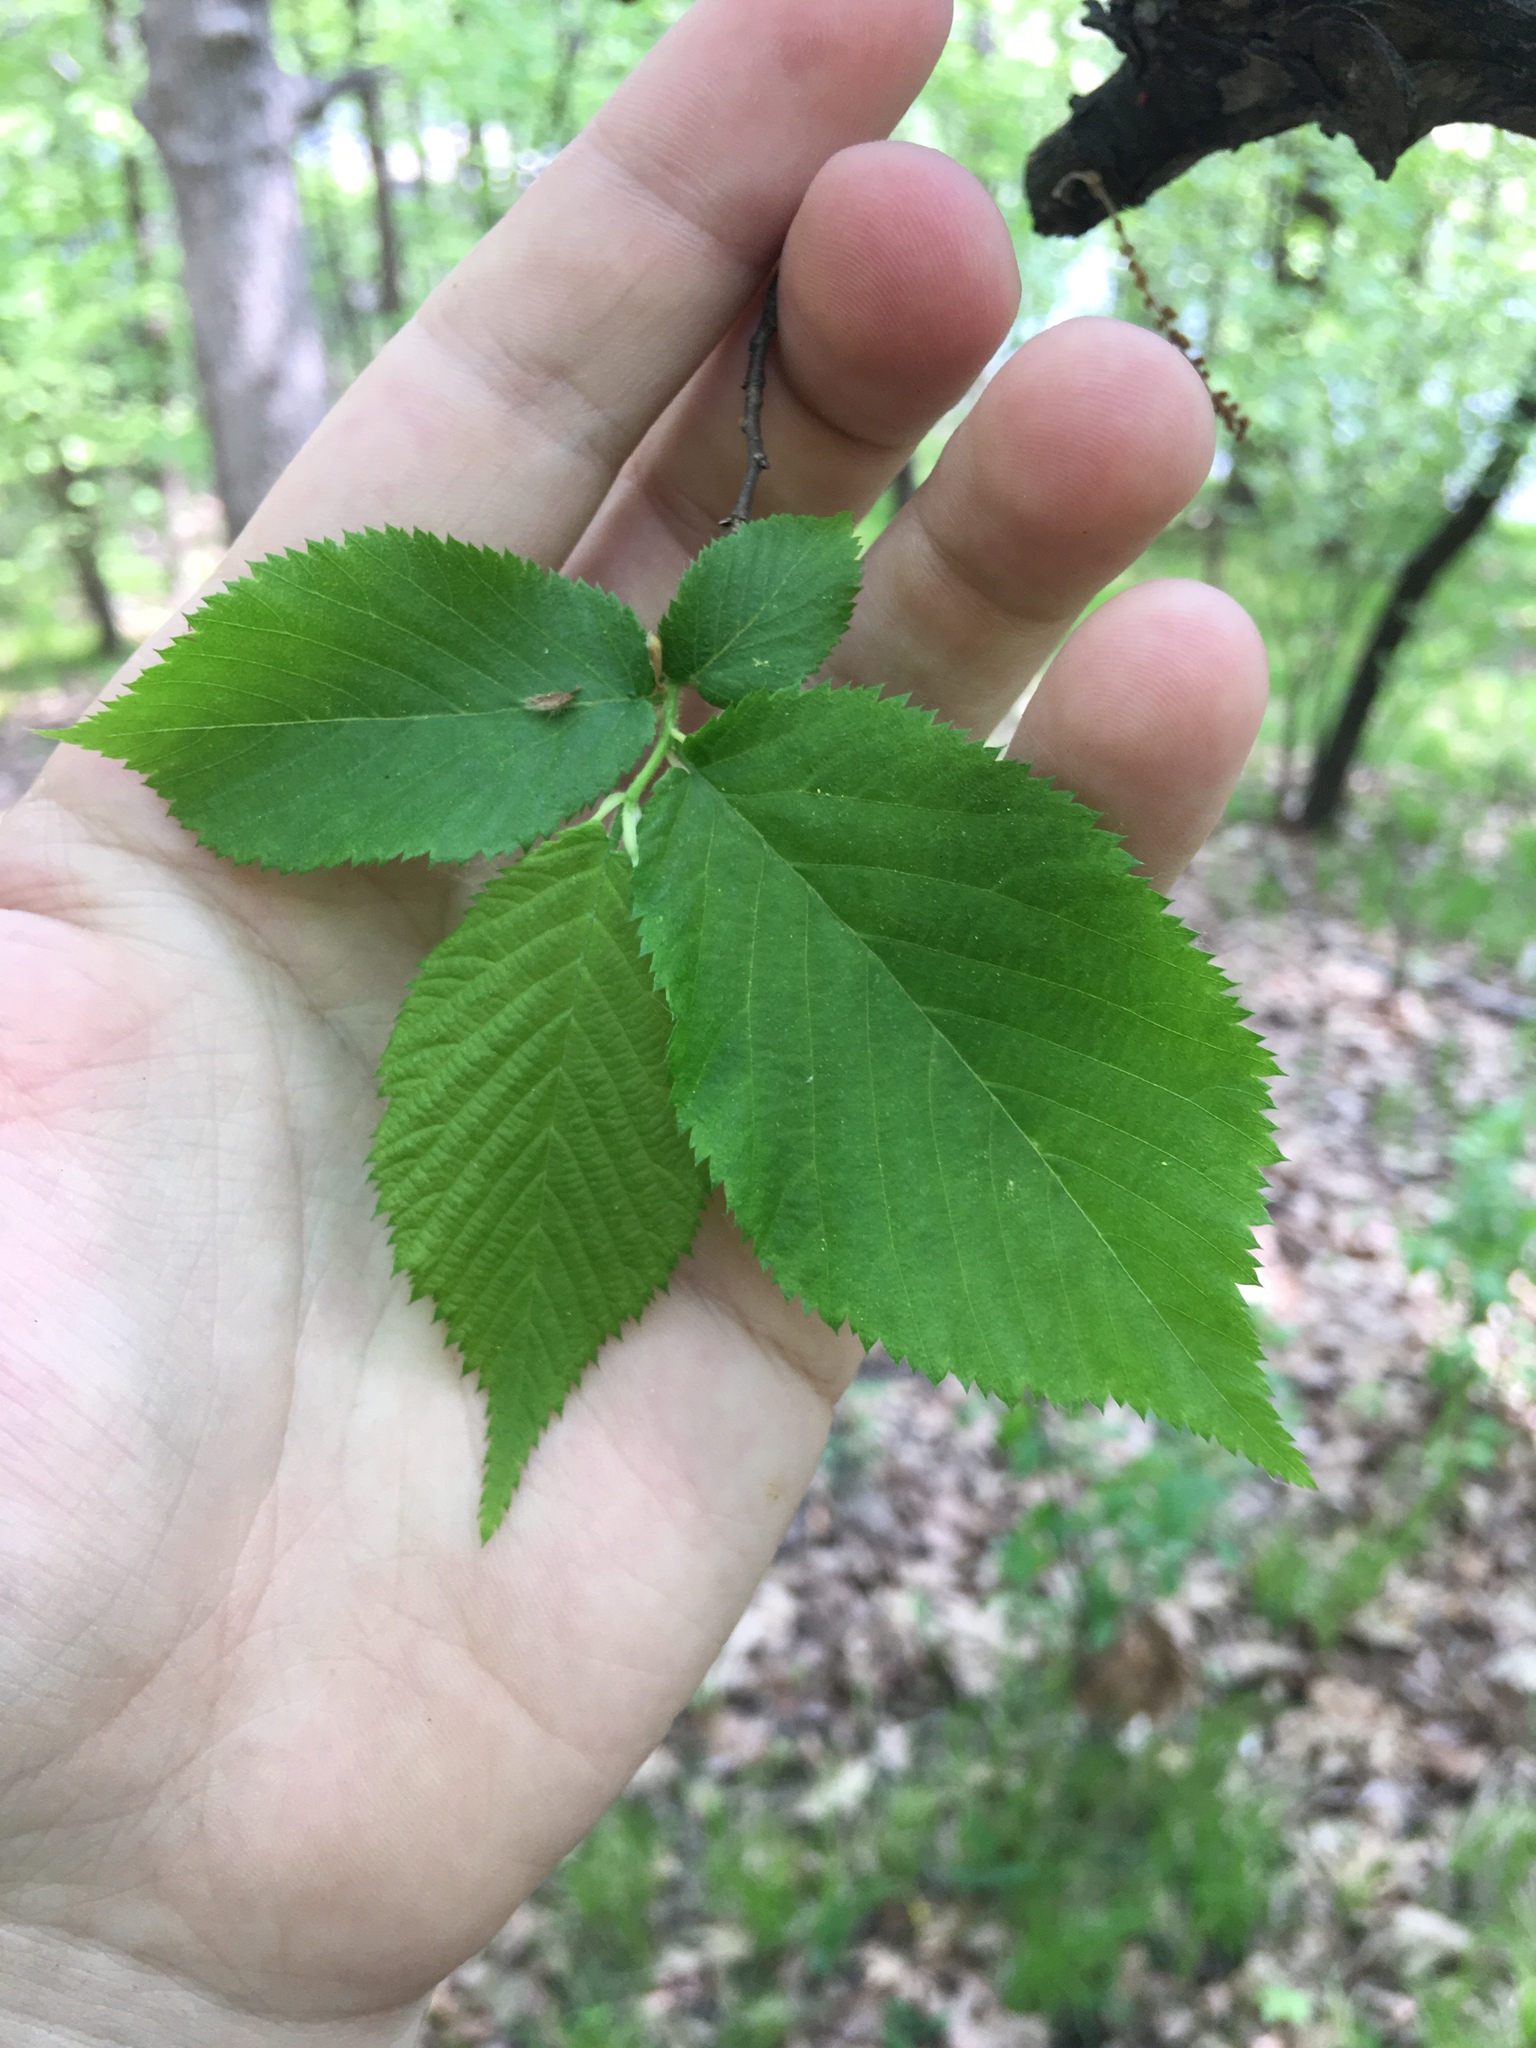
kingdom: Plantae
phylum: Tracheophyta
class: Magnoliopsida
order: Fagales
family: Betulaceae
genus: Ostrya
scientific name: Ostrya virginiana
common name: Ironwood
